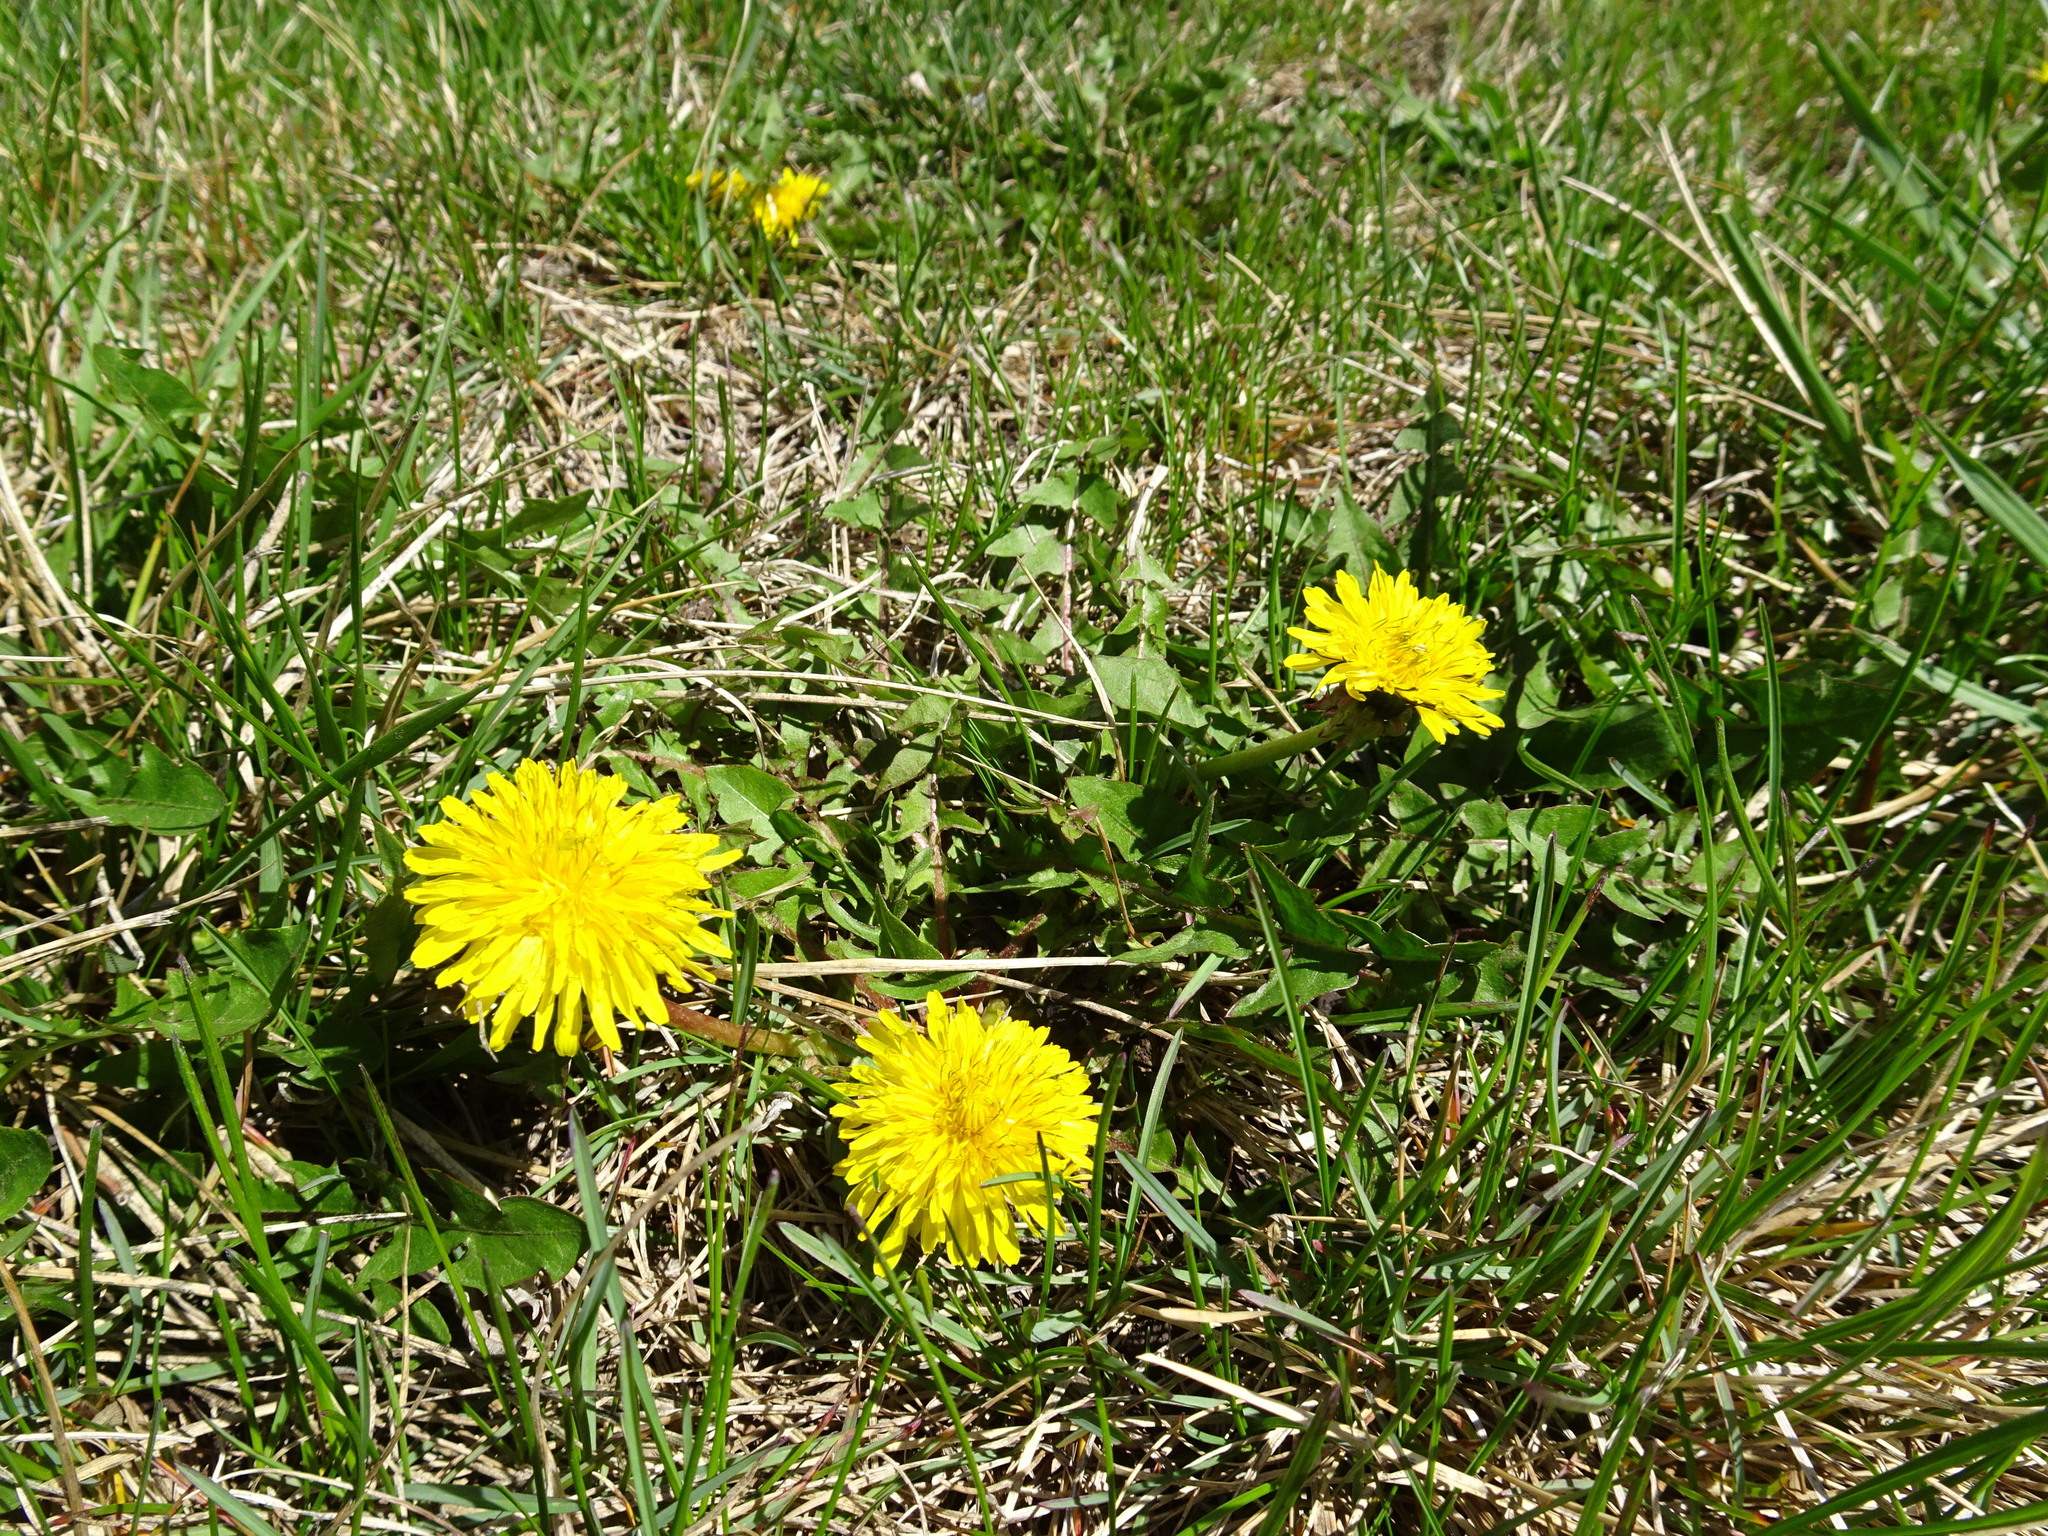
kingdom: Plantae
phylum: Tracheophyta
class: Magnoliopsida
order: Asterales
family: Asteraceae
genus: Taraxacum
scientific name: Taraxacum
